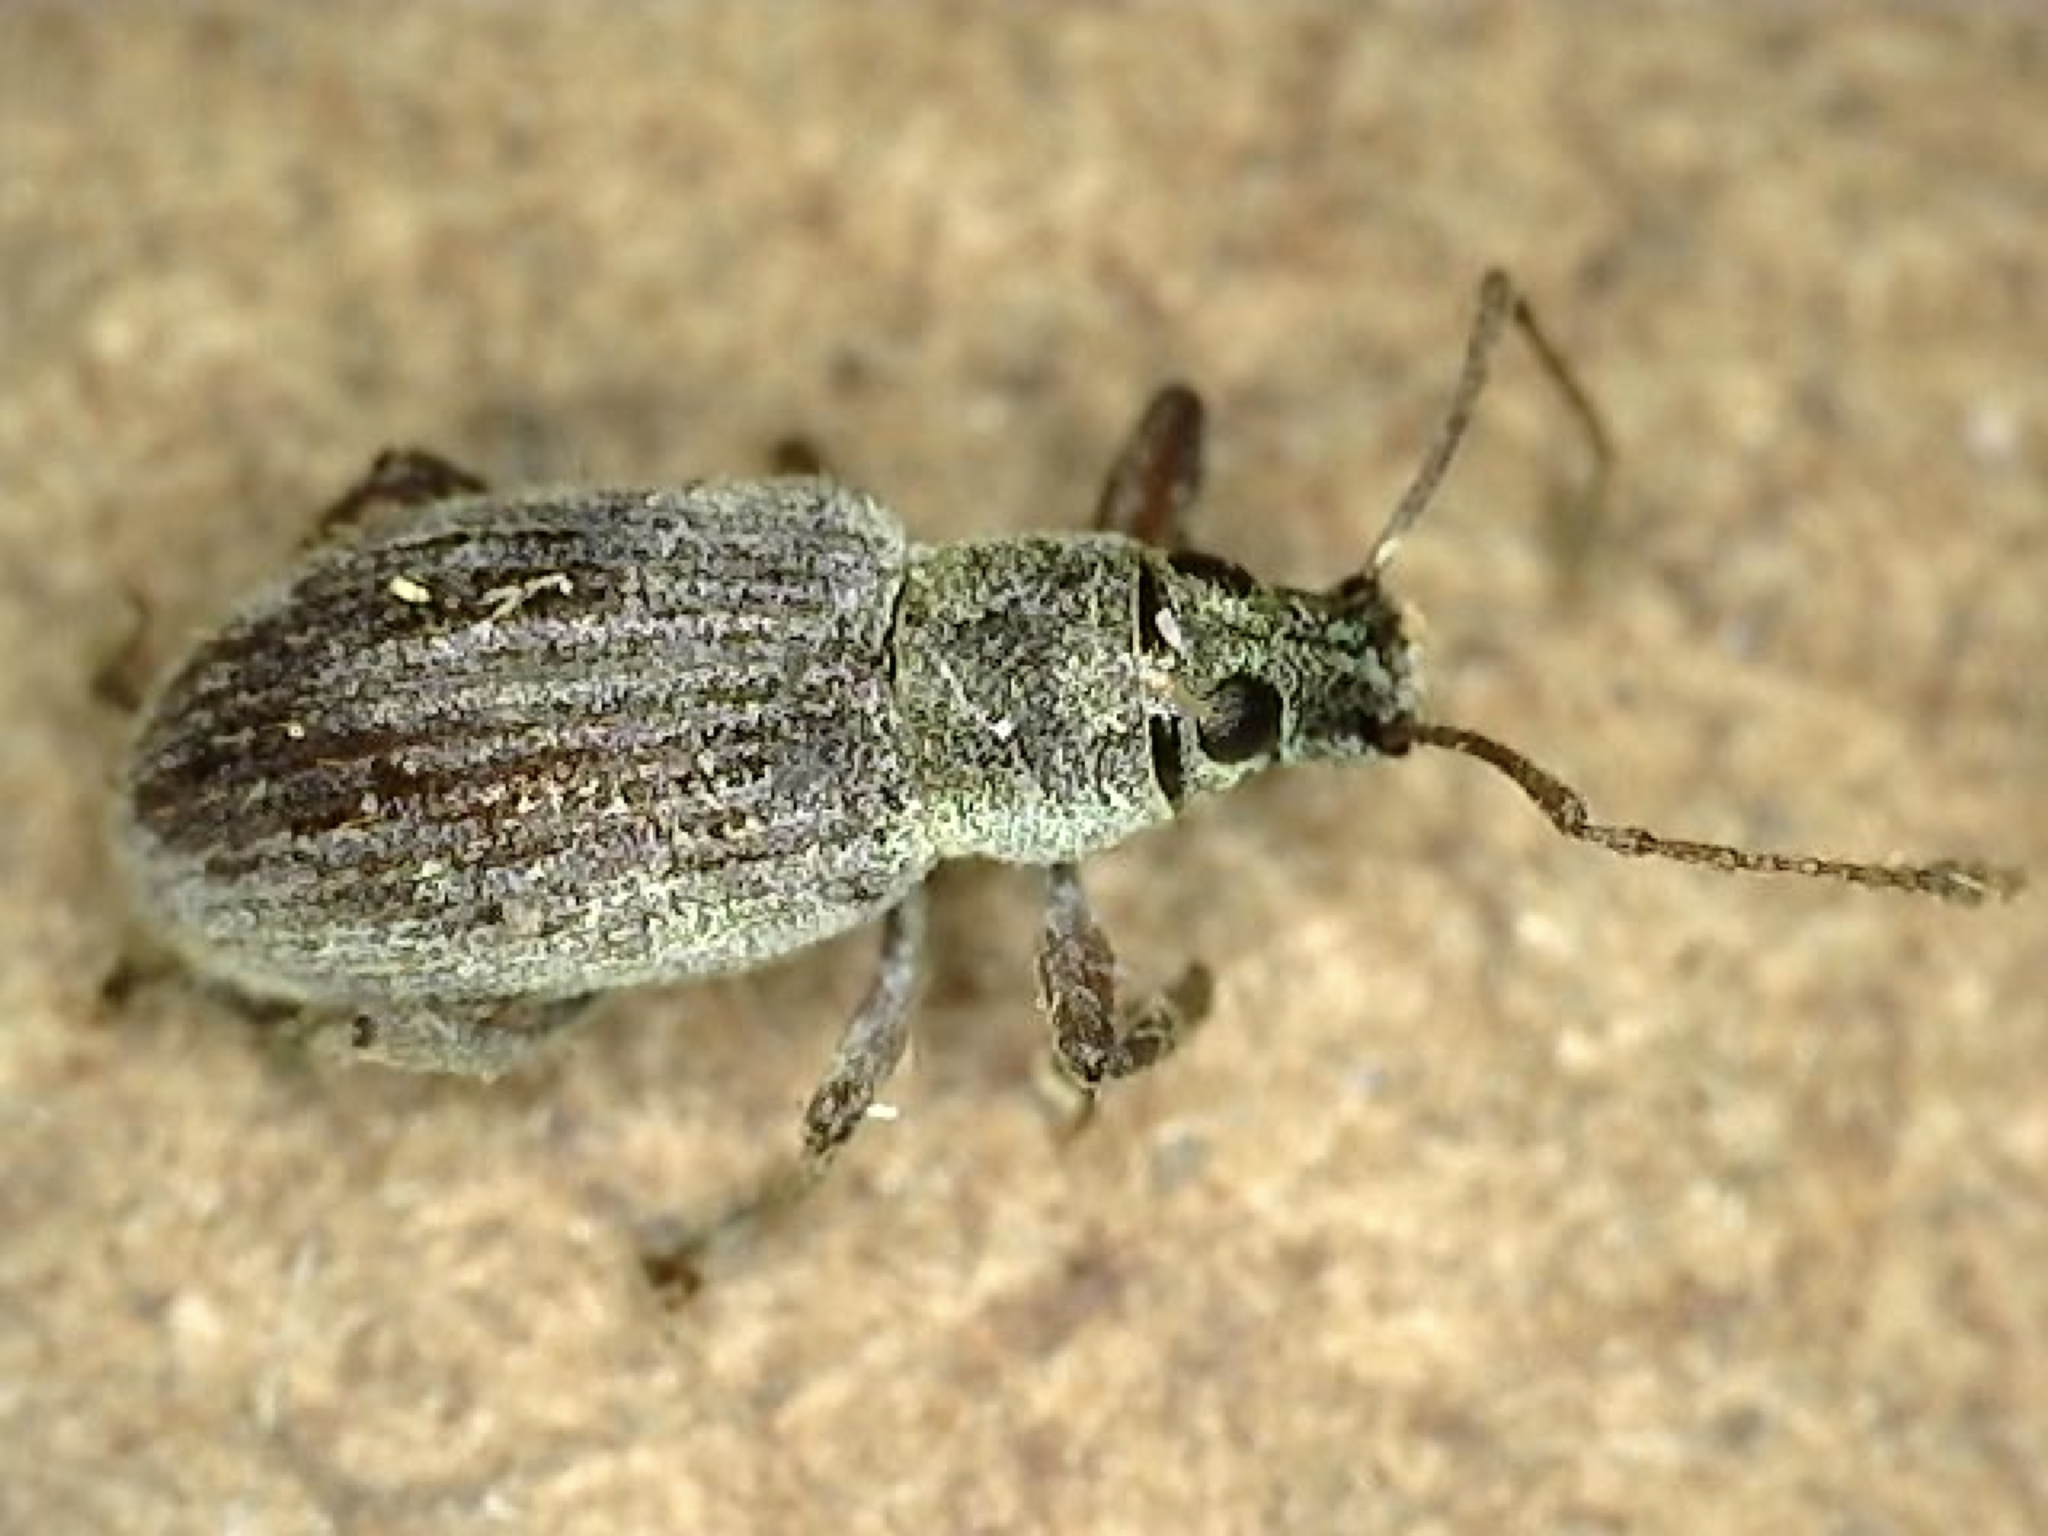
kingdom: Animalia
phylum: Arthropoda
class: Insecta
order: Coleoptera
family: Curculionidae
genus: Cyrtepistomus
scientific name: Cyrtepistomus castaneus
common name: Weevil
